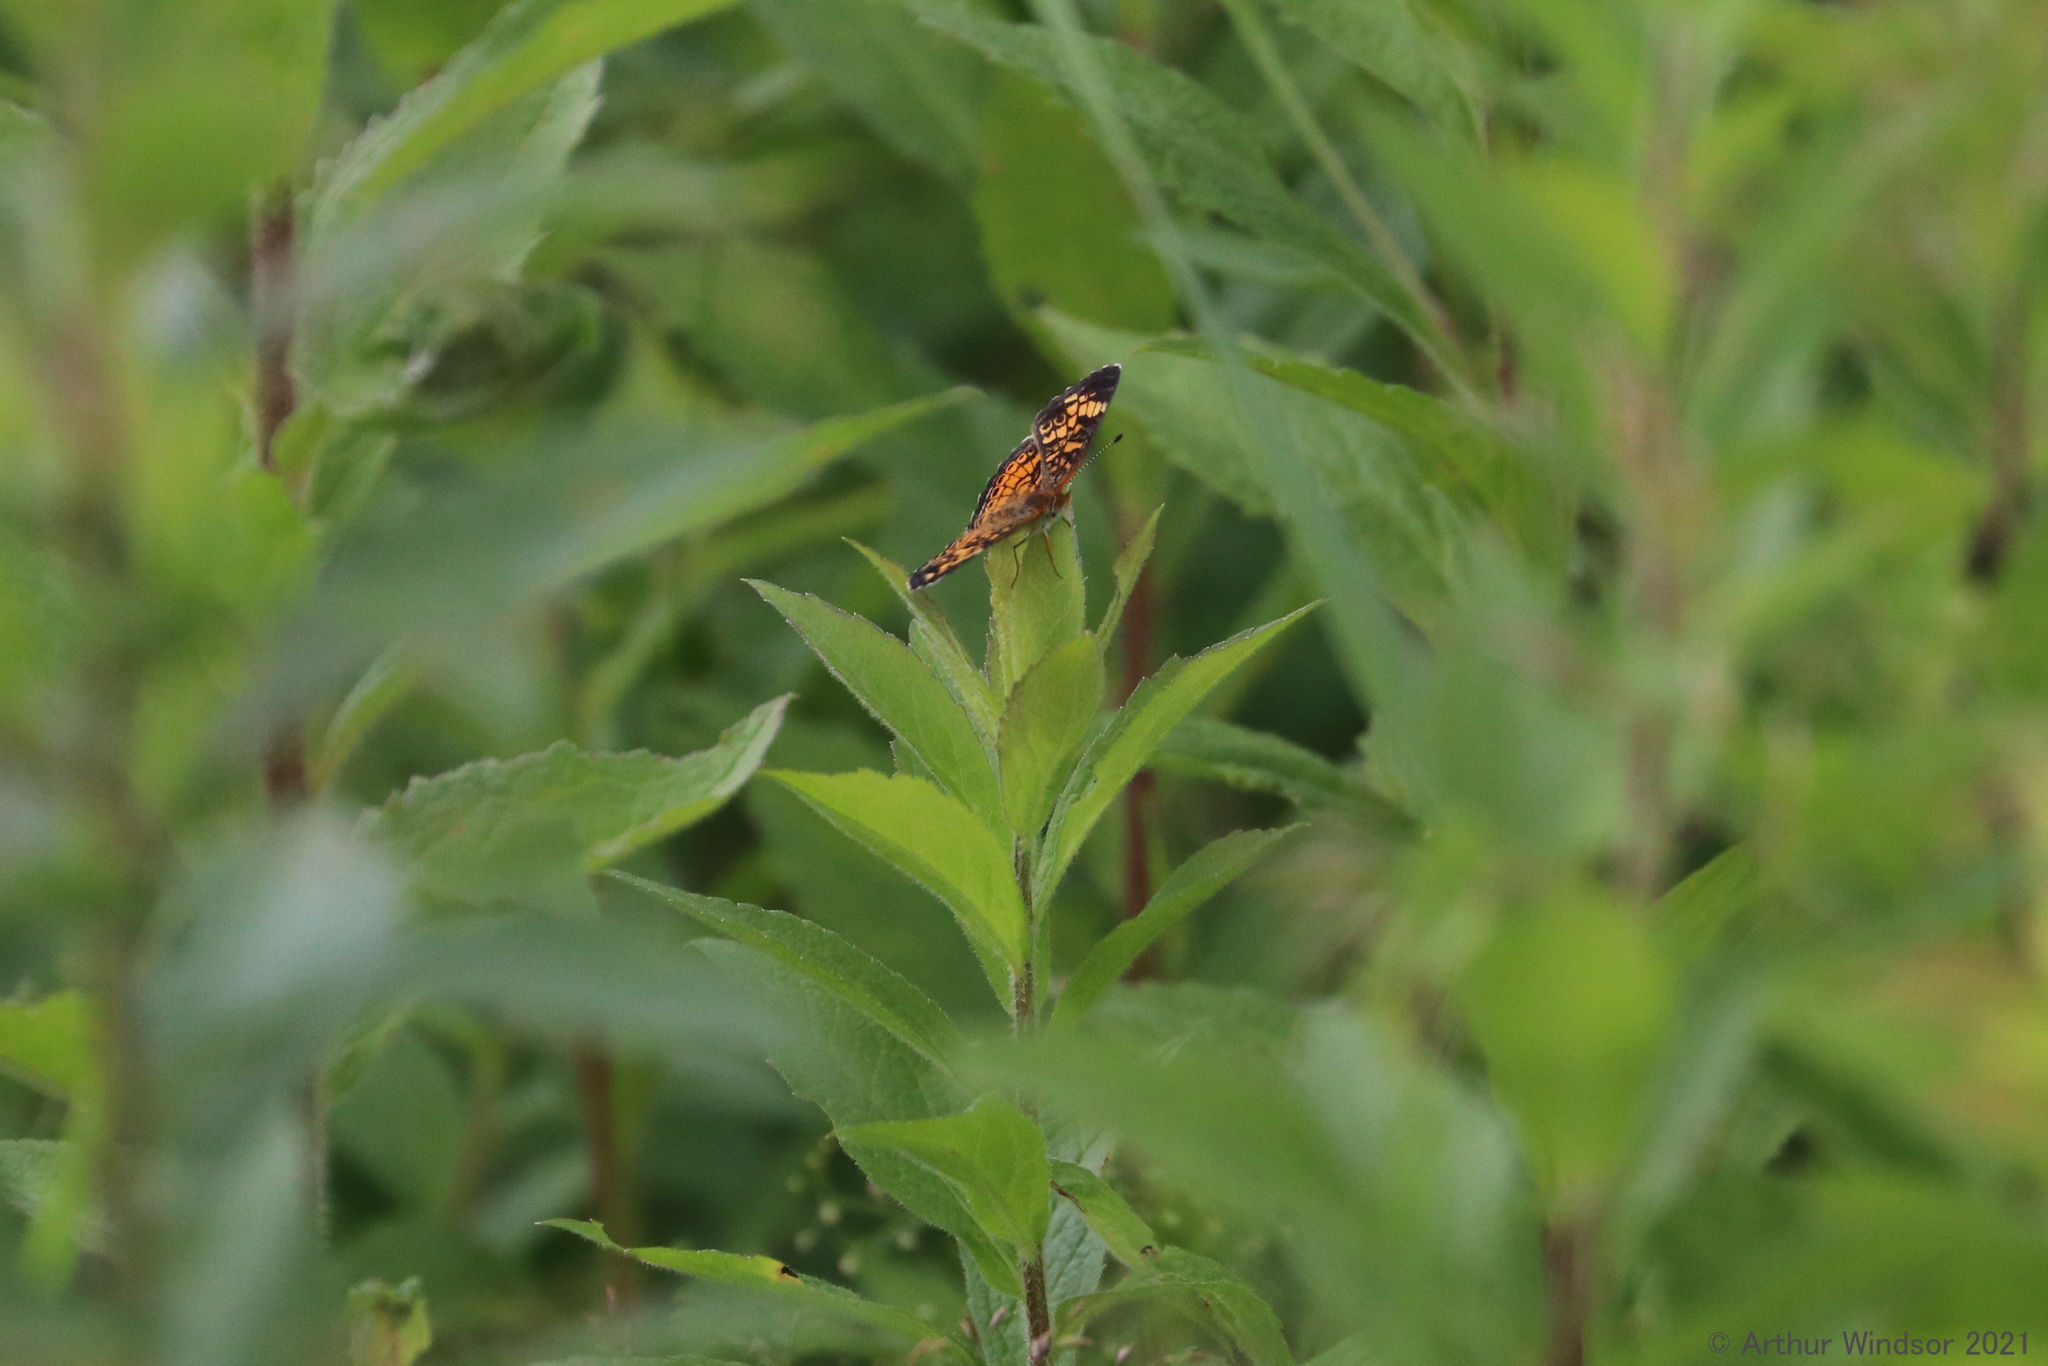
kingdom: Animalia
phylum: Arthropoda
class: Insecta
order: Lepidoptera
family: Nymphalidae
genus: Phyciodes
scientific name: Phyciodes tharos
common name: Pearl crescent
